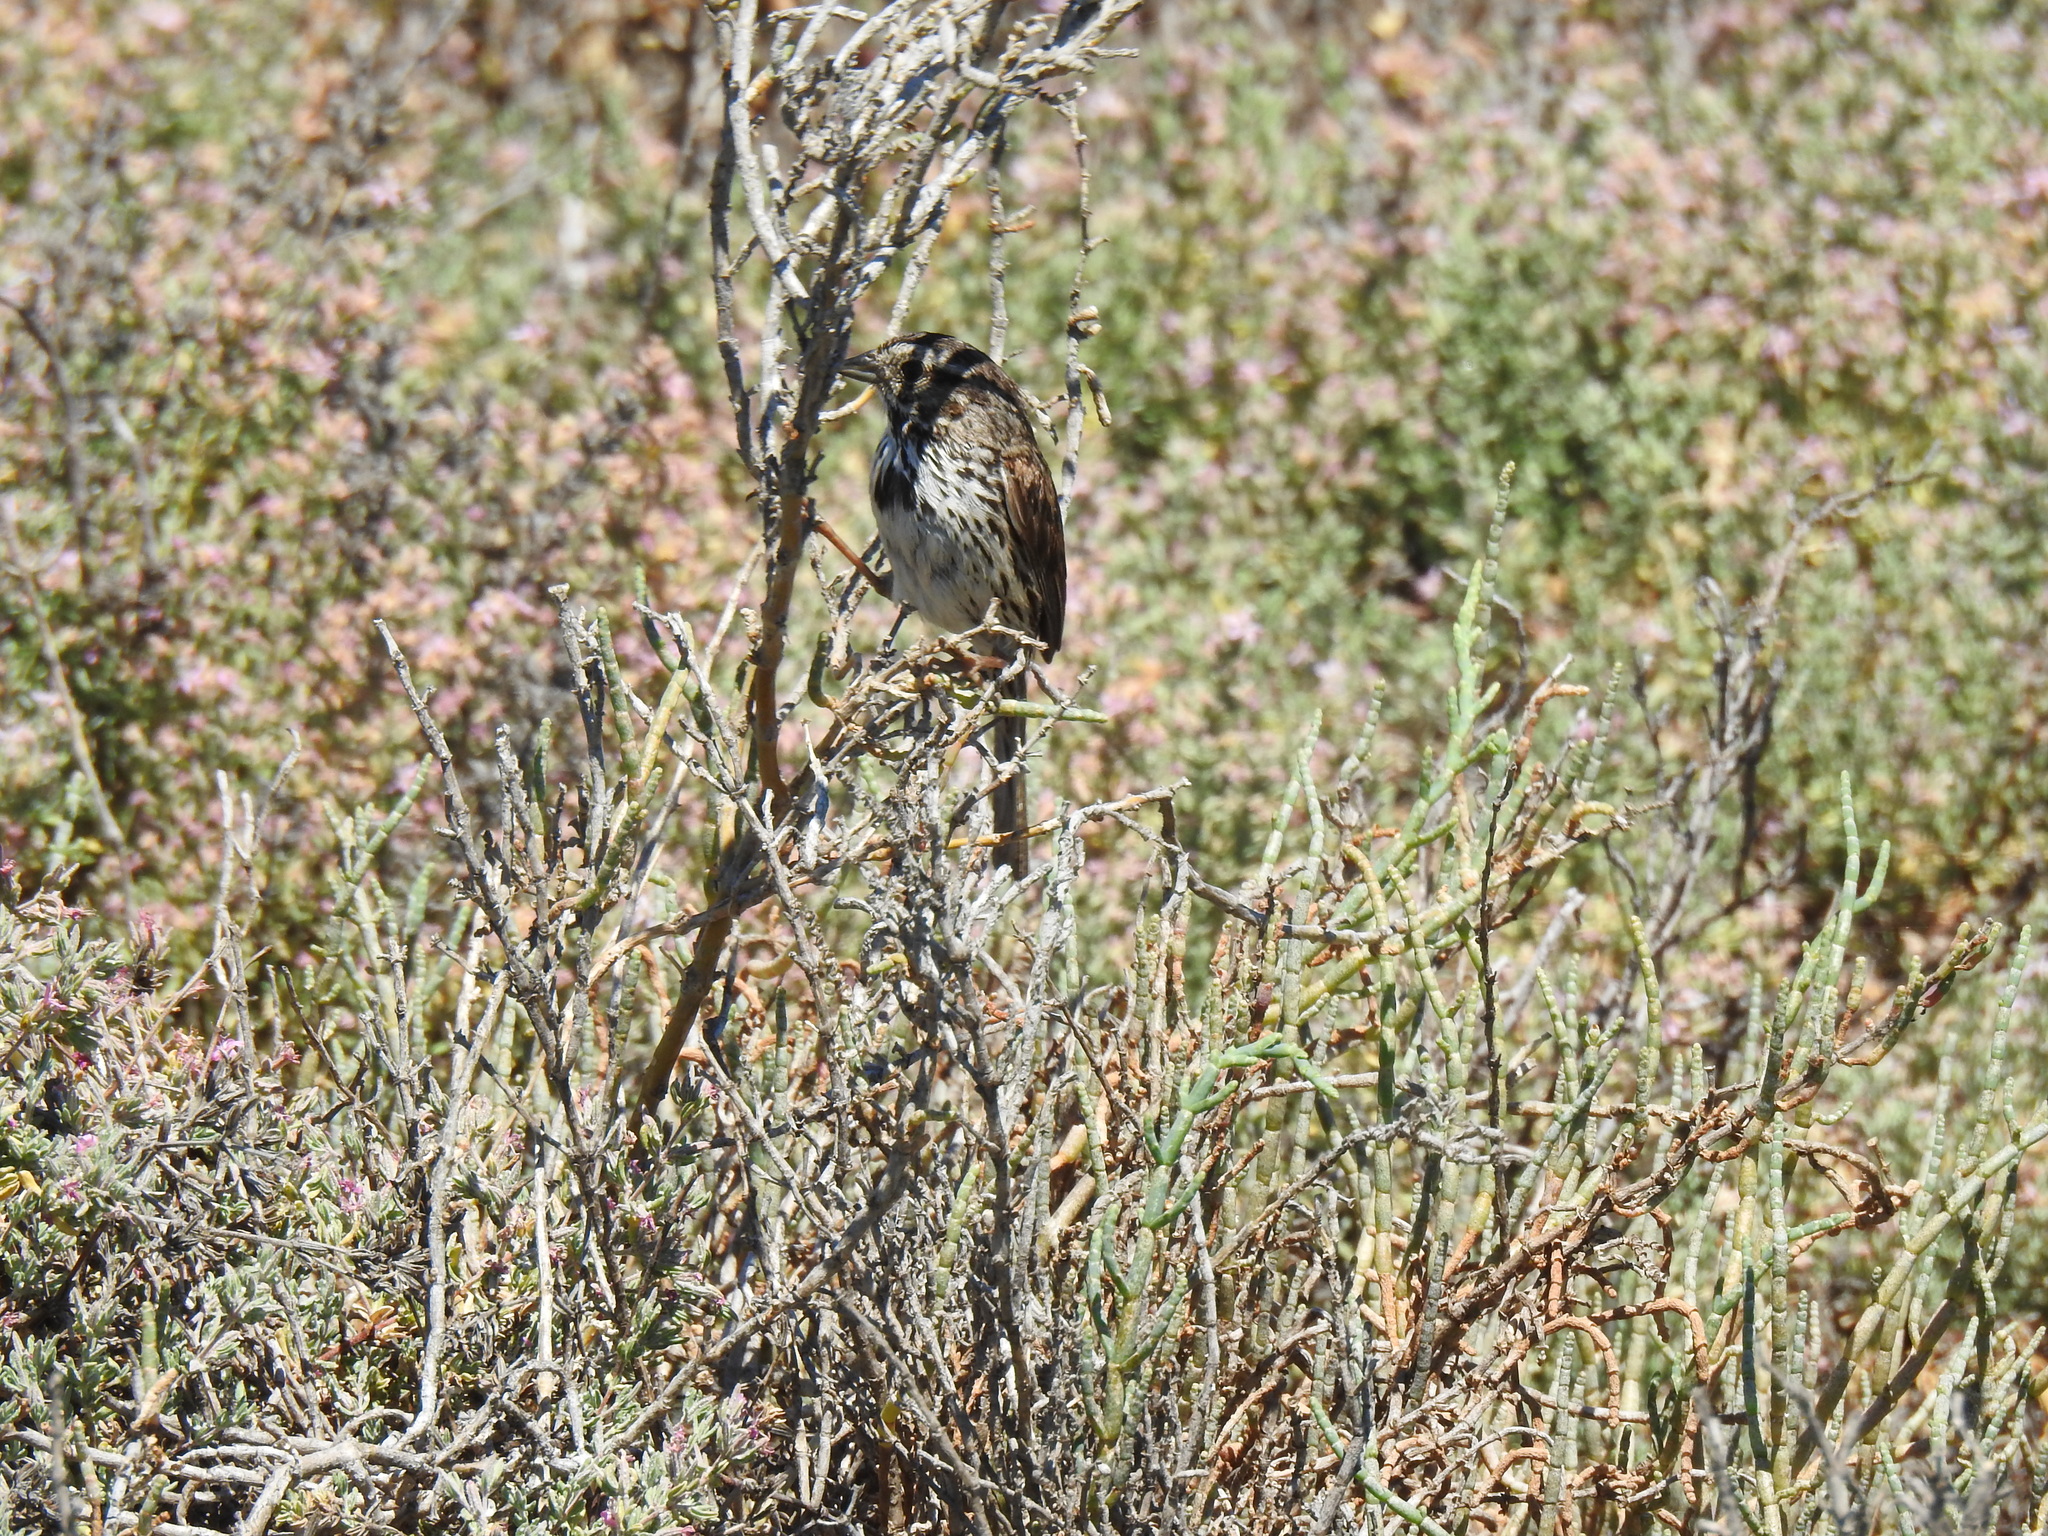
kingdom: Animalia
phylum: Chordata
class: Aves
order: Passeriformes
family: Passerellidae
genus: Melospiza
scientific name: Melospiza melodia
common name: Song sparrow
